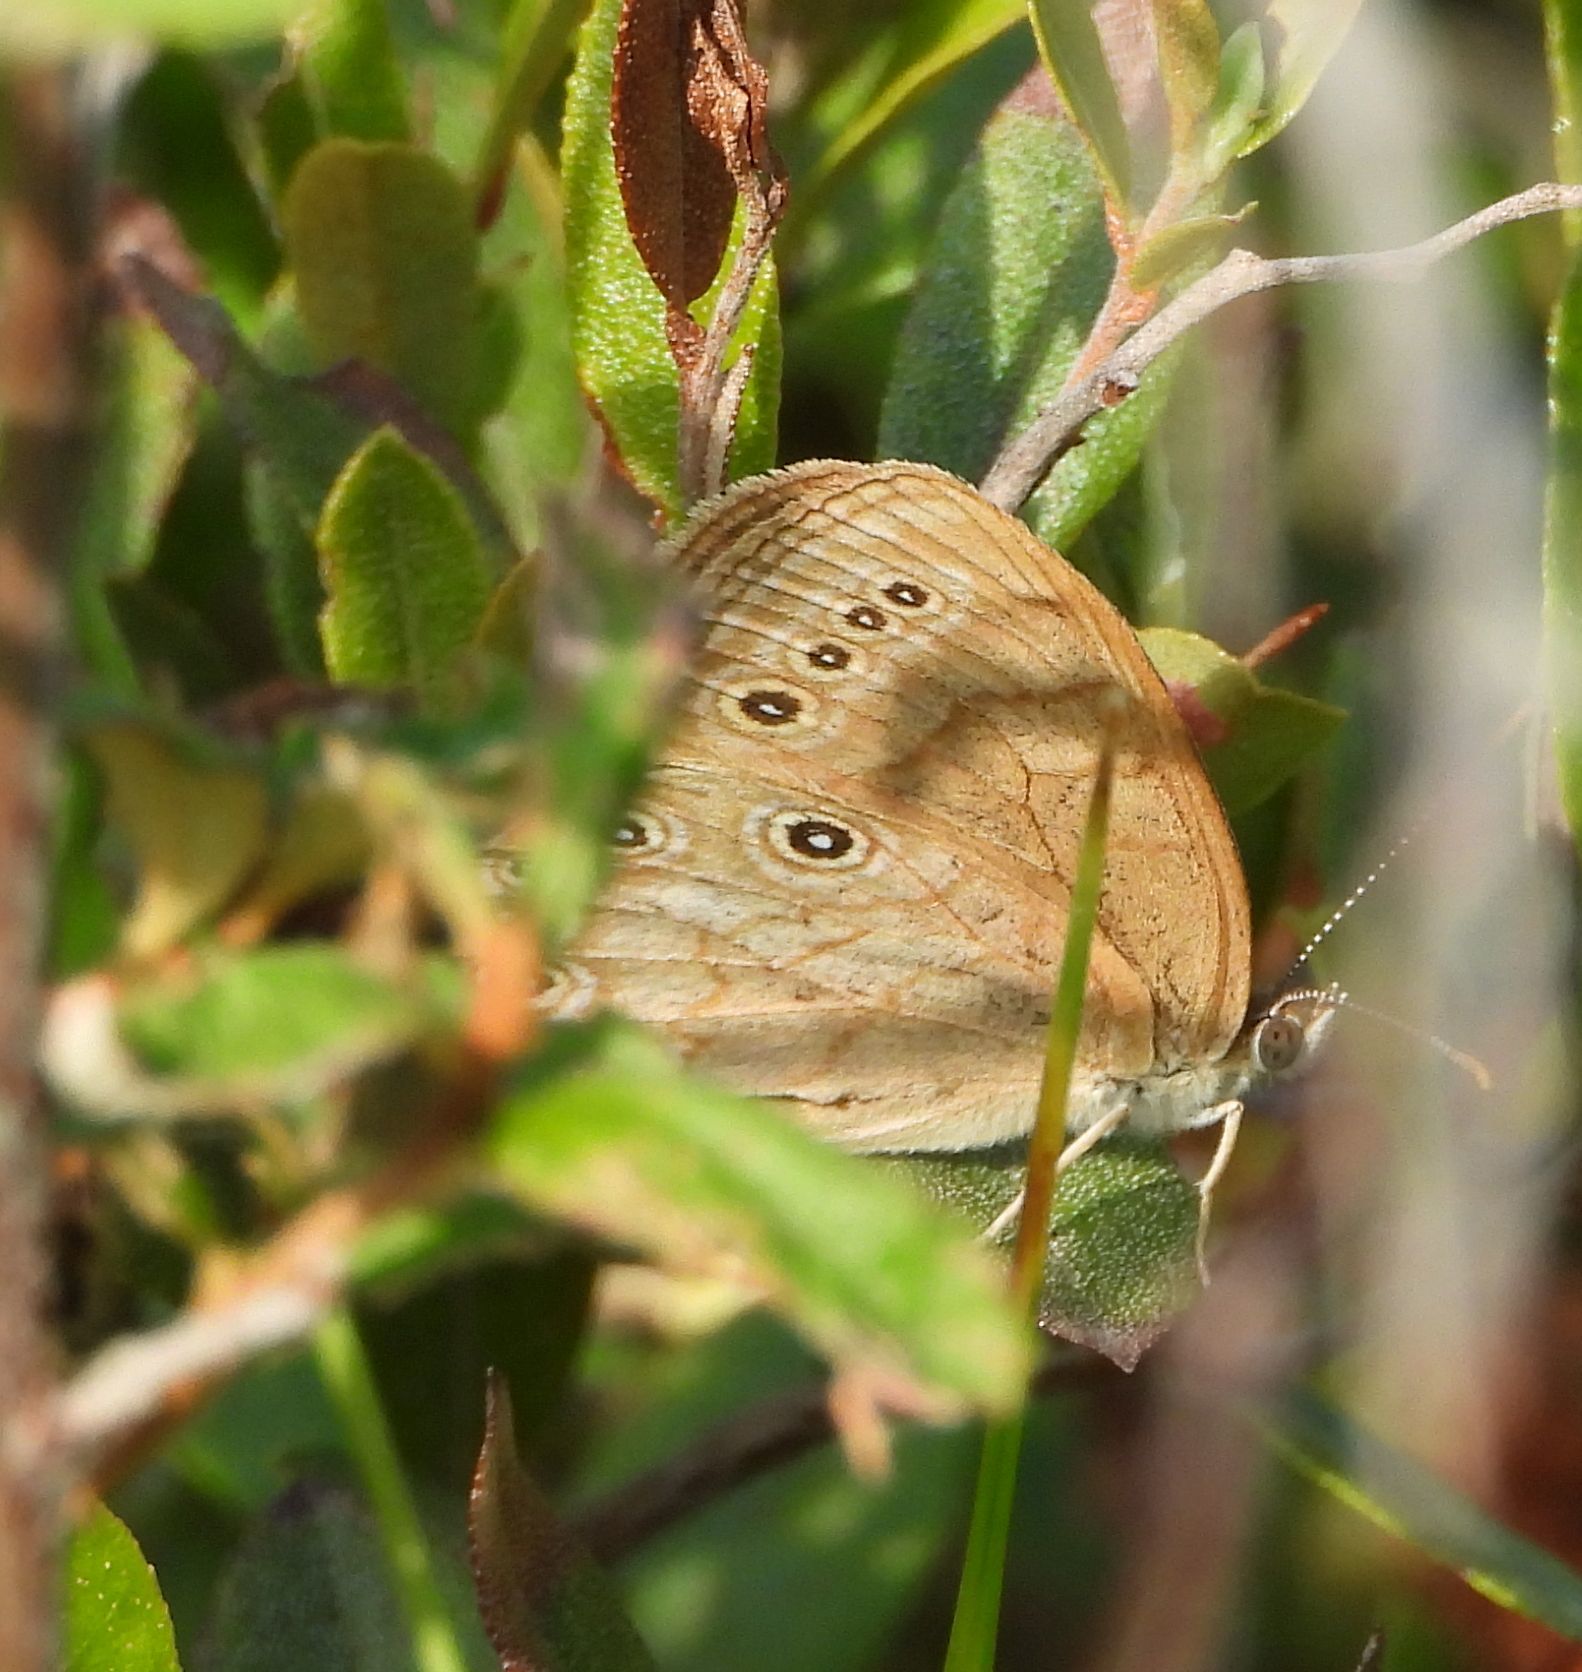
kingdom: Animalia
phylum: Arthropoda
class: Insecta
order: Lepidoptera
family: Nymphalidae
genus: Lethe
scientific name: Lethe eurydice
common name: Eyed brown
